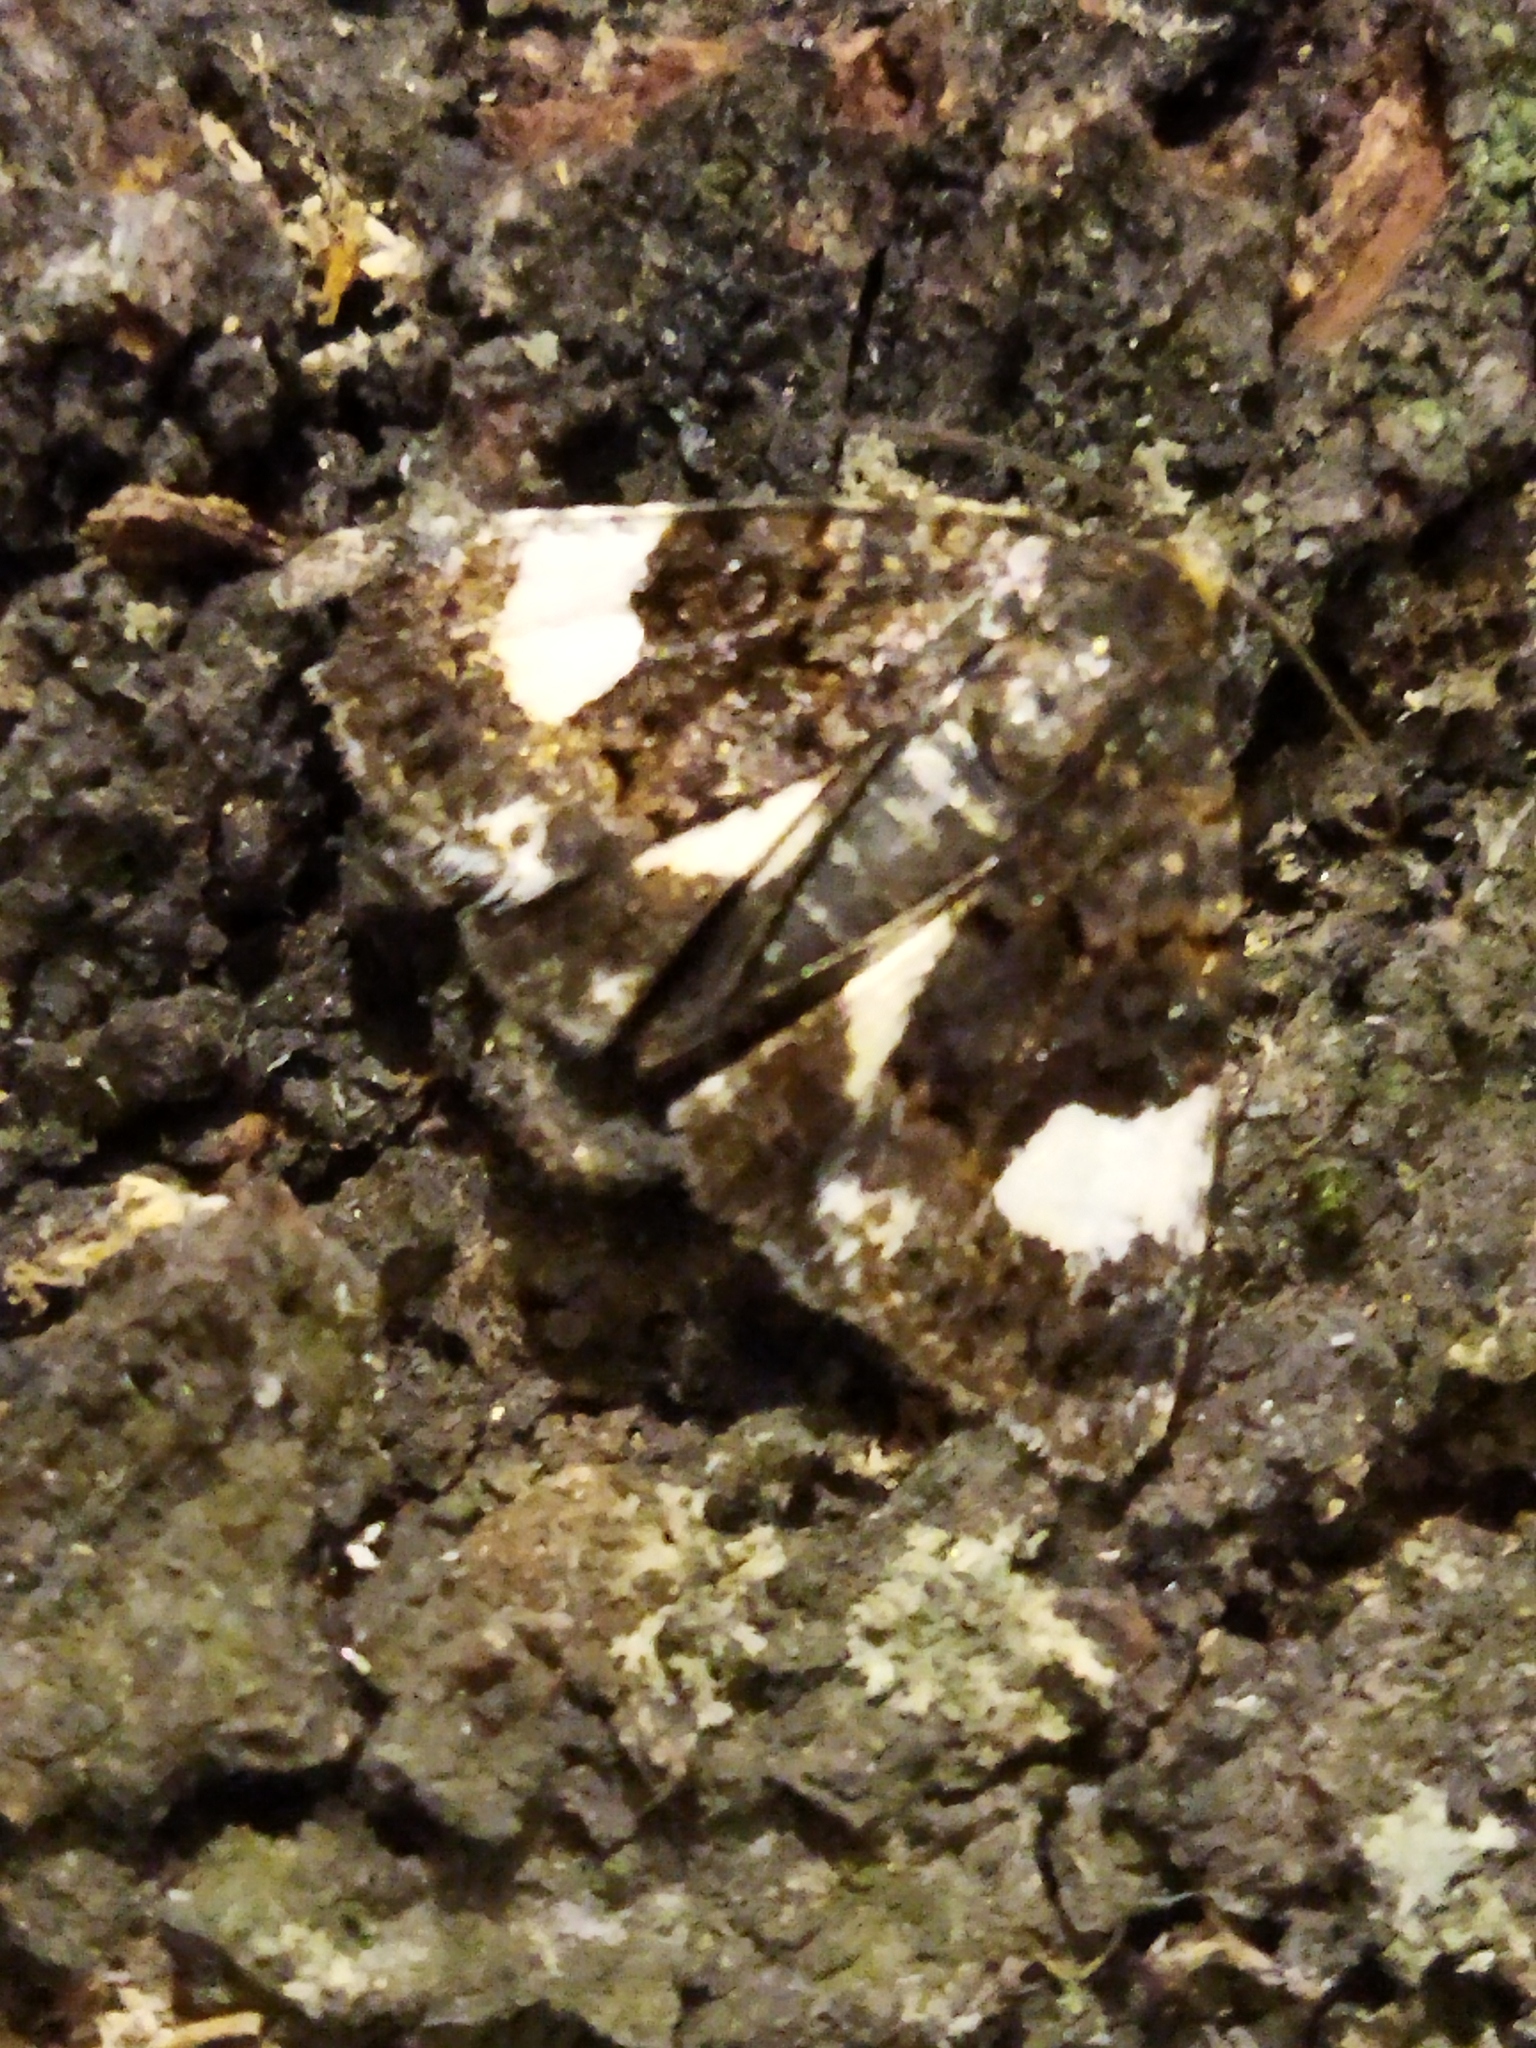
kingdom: Animalia
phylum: Arthropoda
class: Insecta
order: Lepidoptera
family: Erebidae
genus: Tyta
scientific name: Tyta luctuosa
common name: Four-spotted
